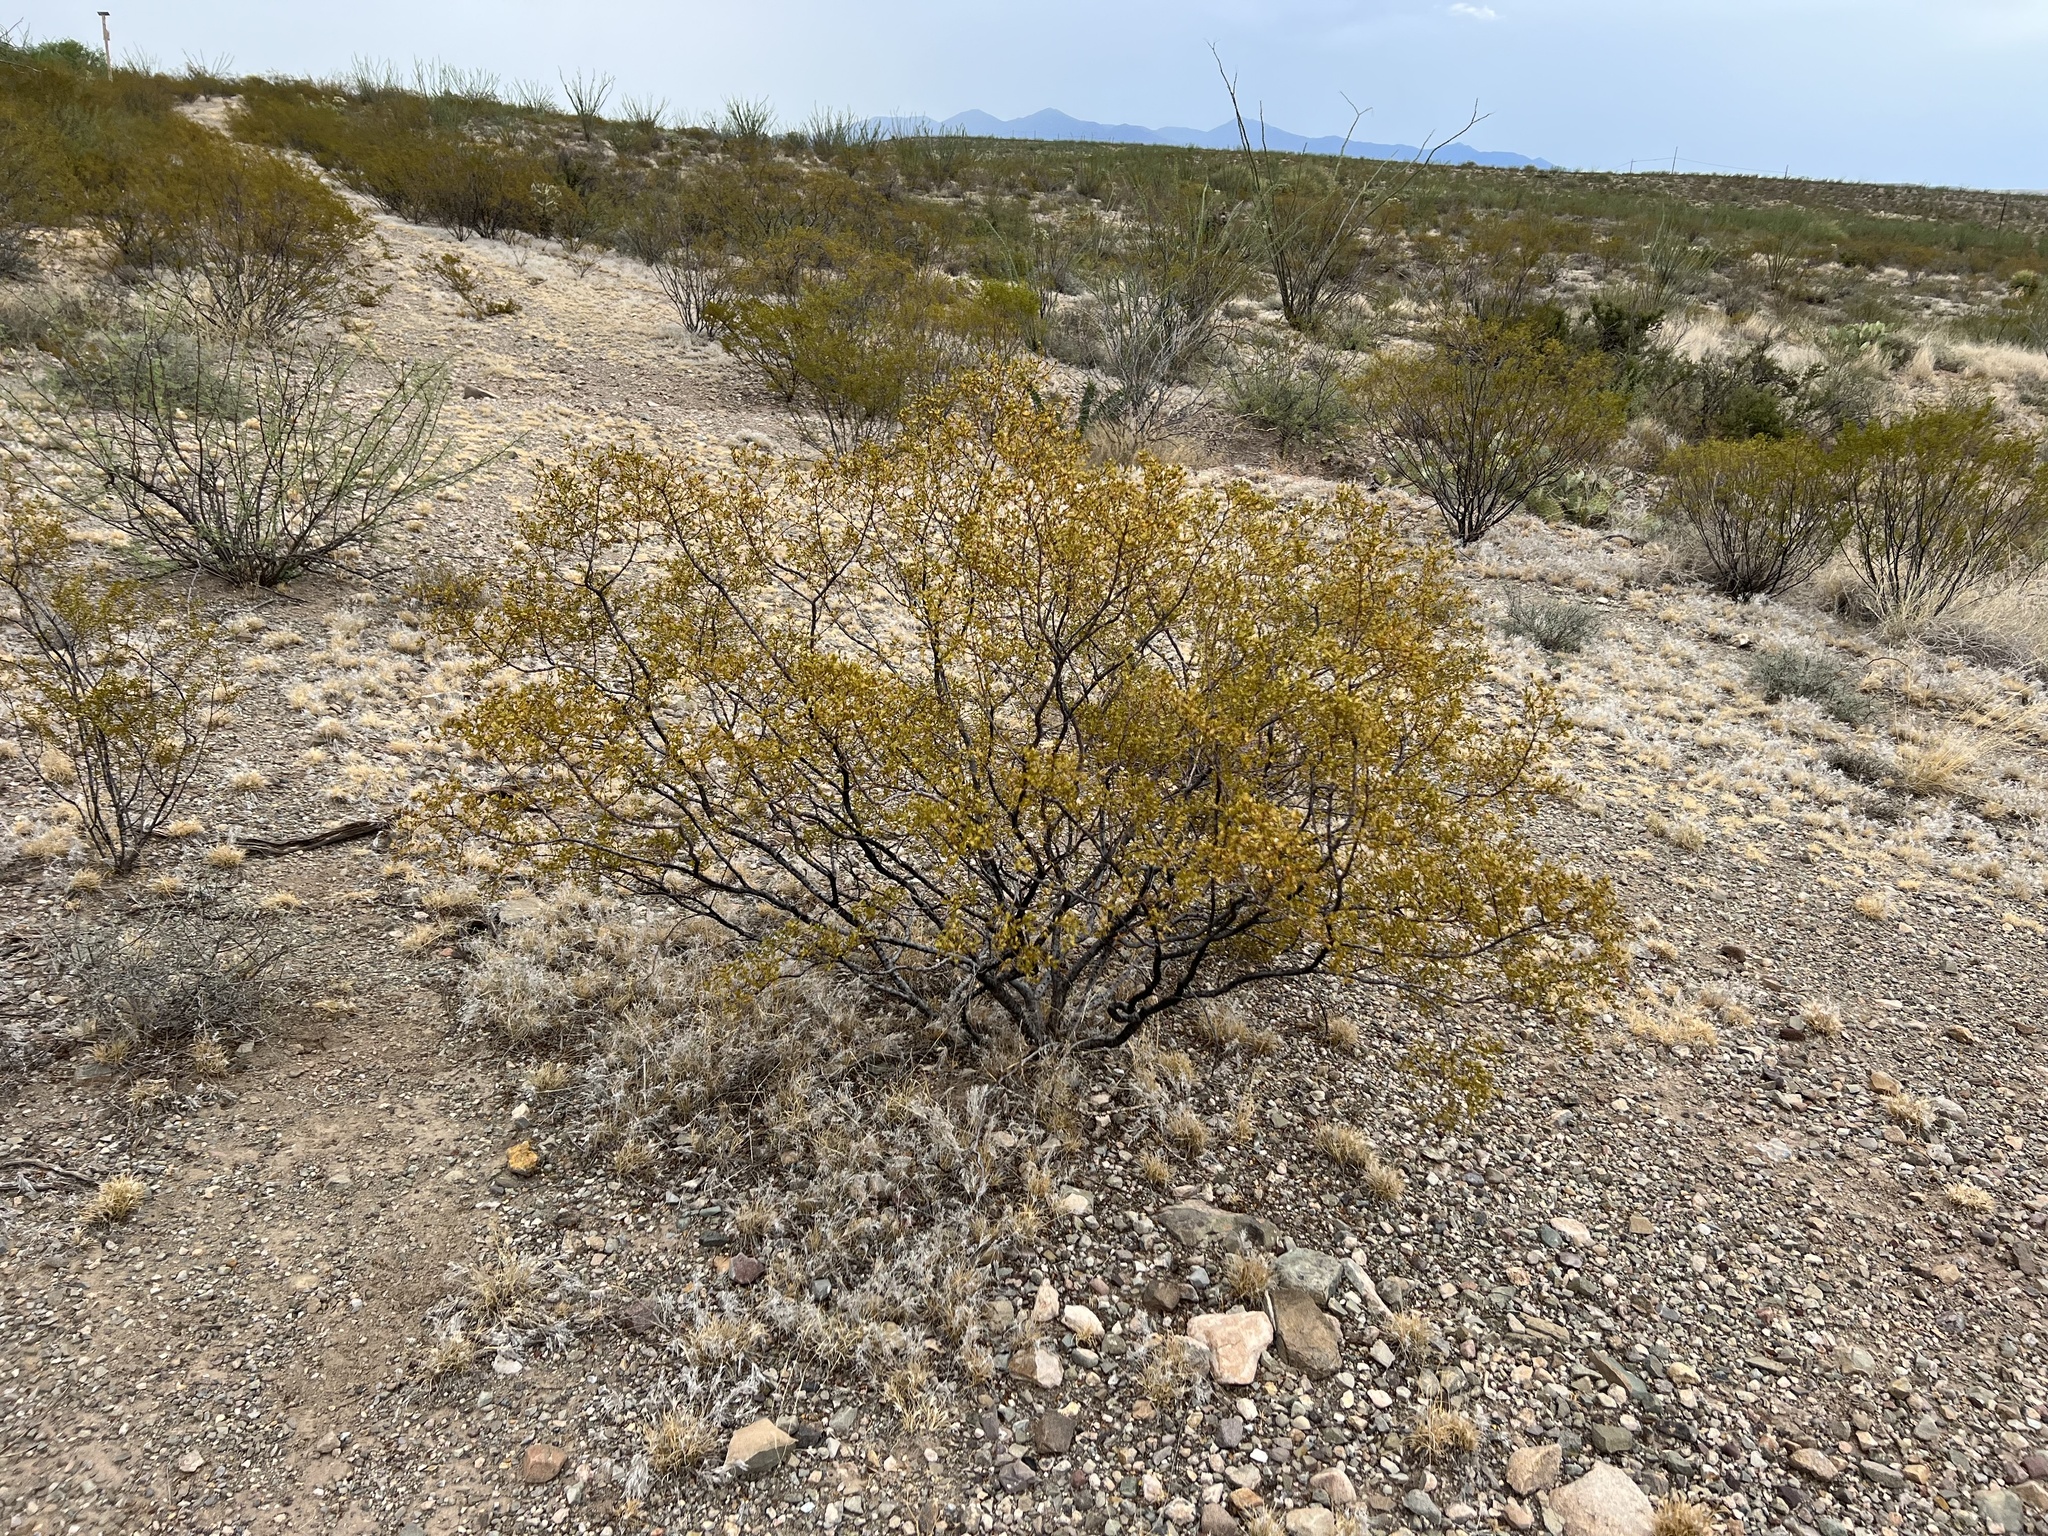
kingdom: Plantae
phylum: Tracheophyta
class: Magnoliopsida
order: Zygophyllales
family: Zygophyllaceae
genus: Larrea
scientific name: Larrea tridentata
